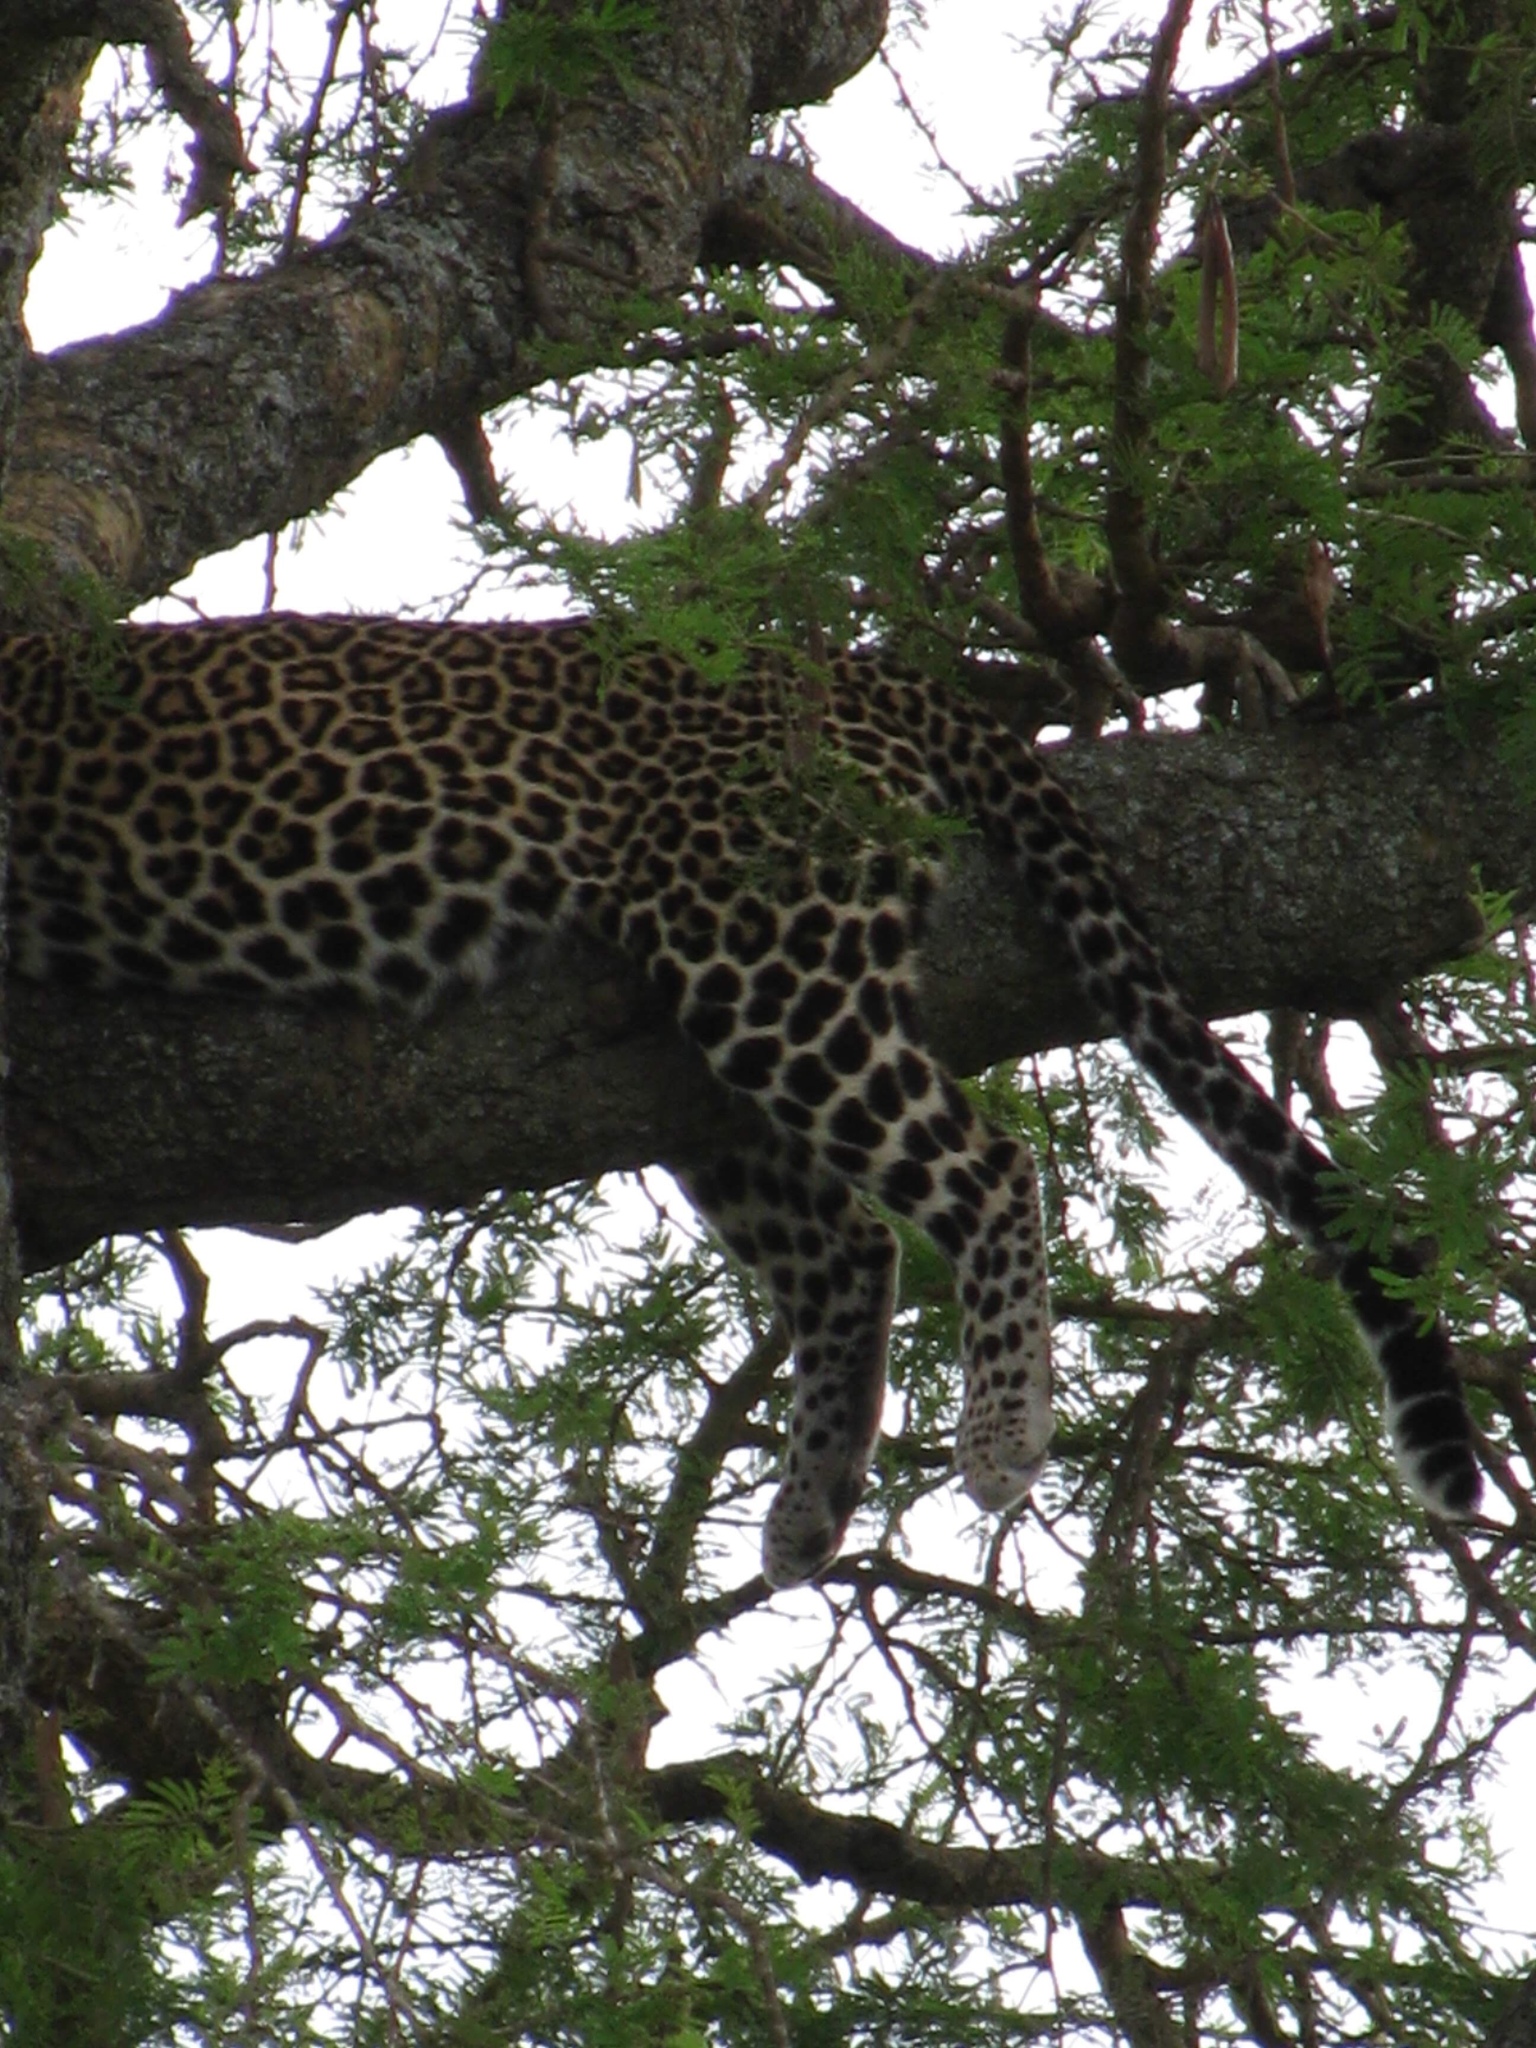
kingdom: Animalia
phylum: Chordata
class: Mammalia
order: Carnivora
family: Felidae
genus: Panthera
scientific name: Panthera pardus
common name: Leopard
